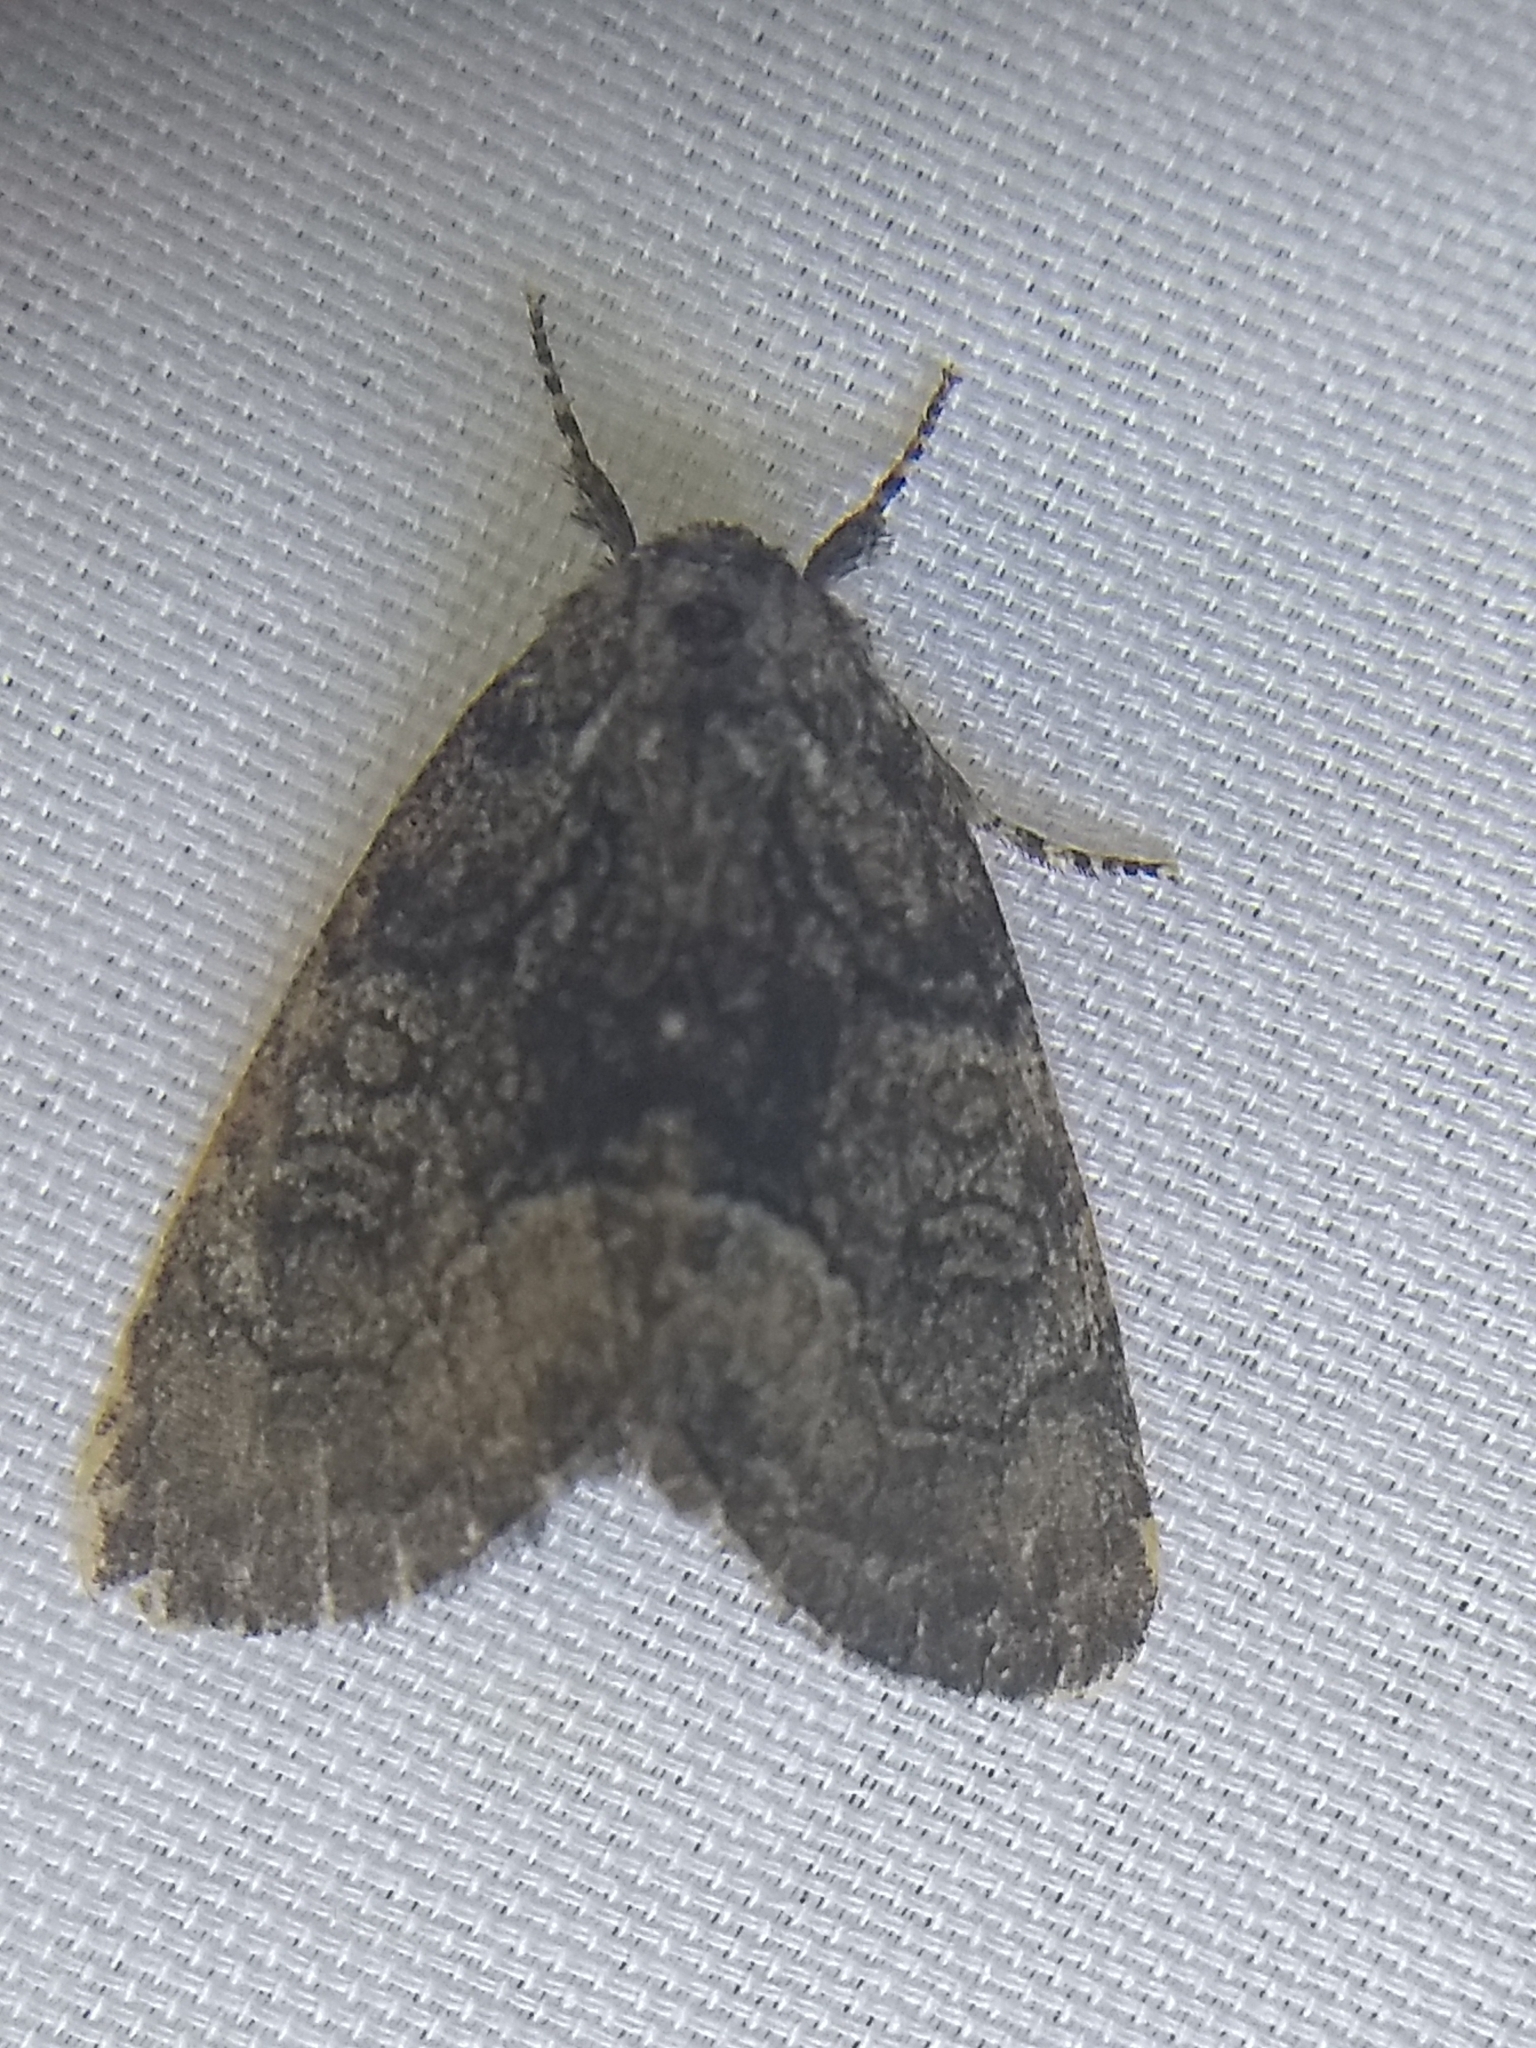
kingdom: Animalia
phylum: Arthropoda
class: Insecta
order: Lepidoptera
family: Noctuidae
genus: Raphia
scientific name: Raphia frater
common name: Brother
